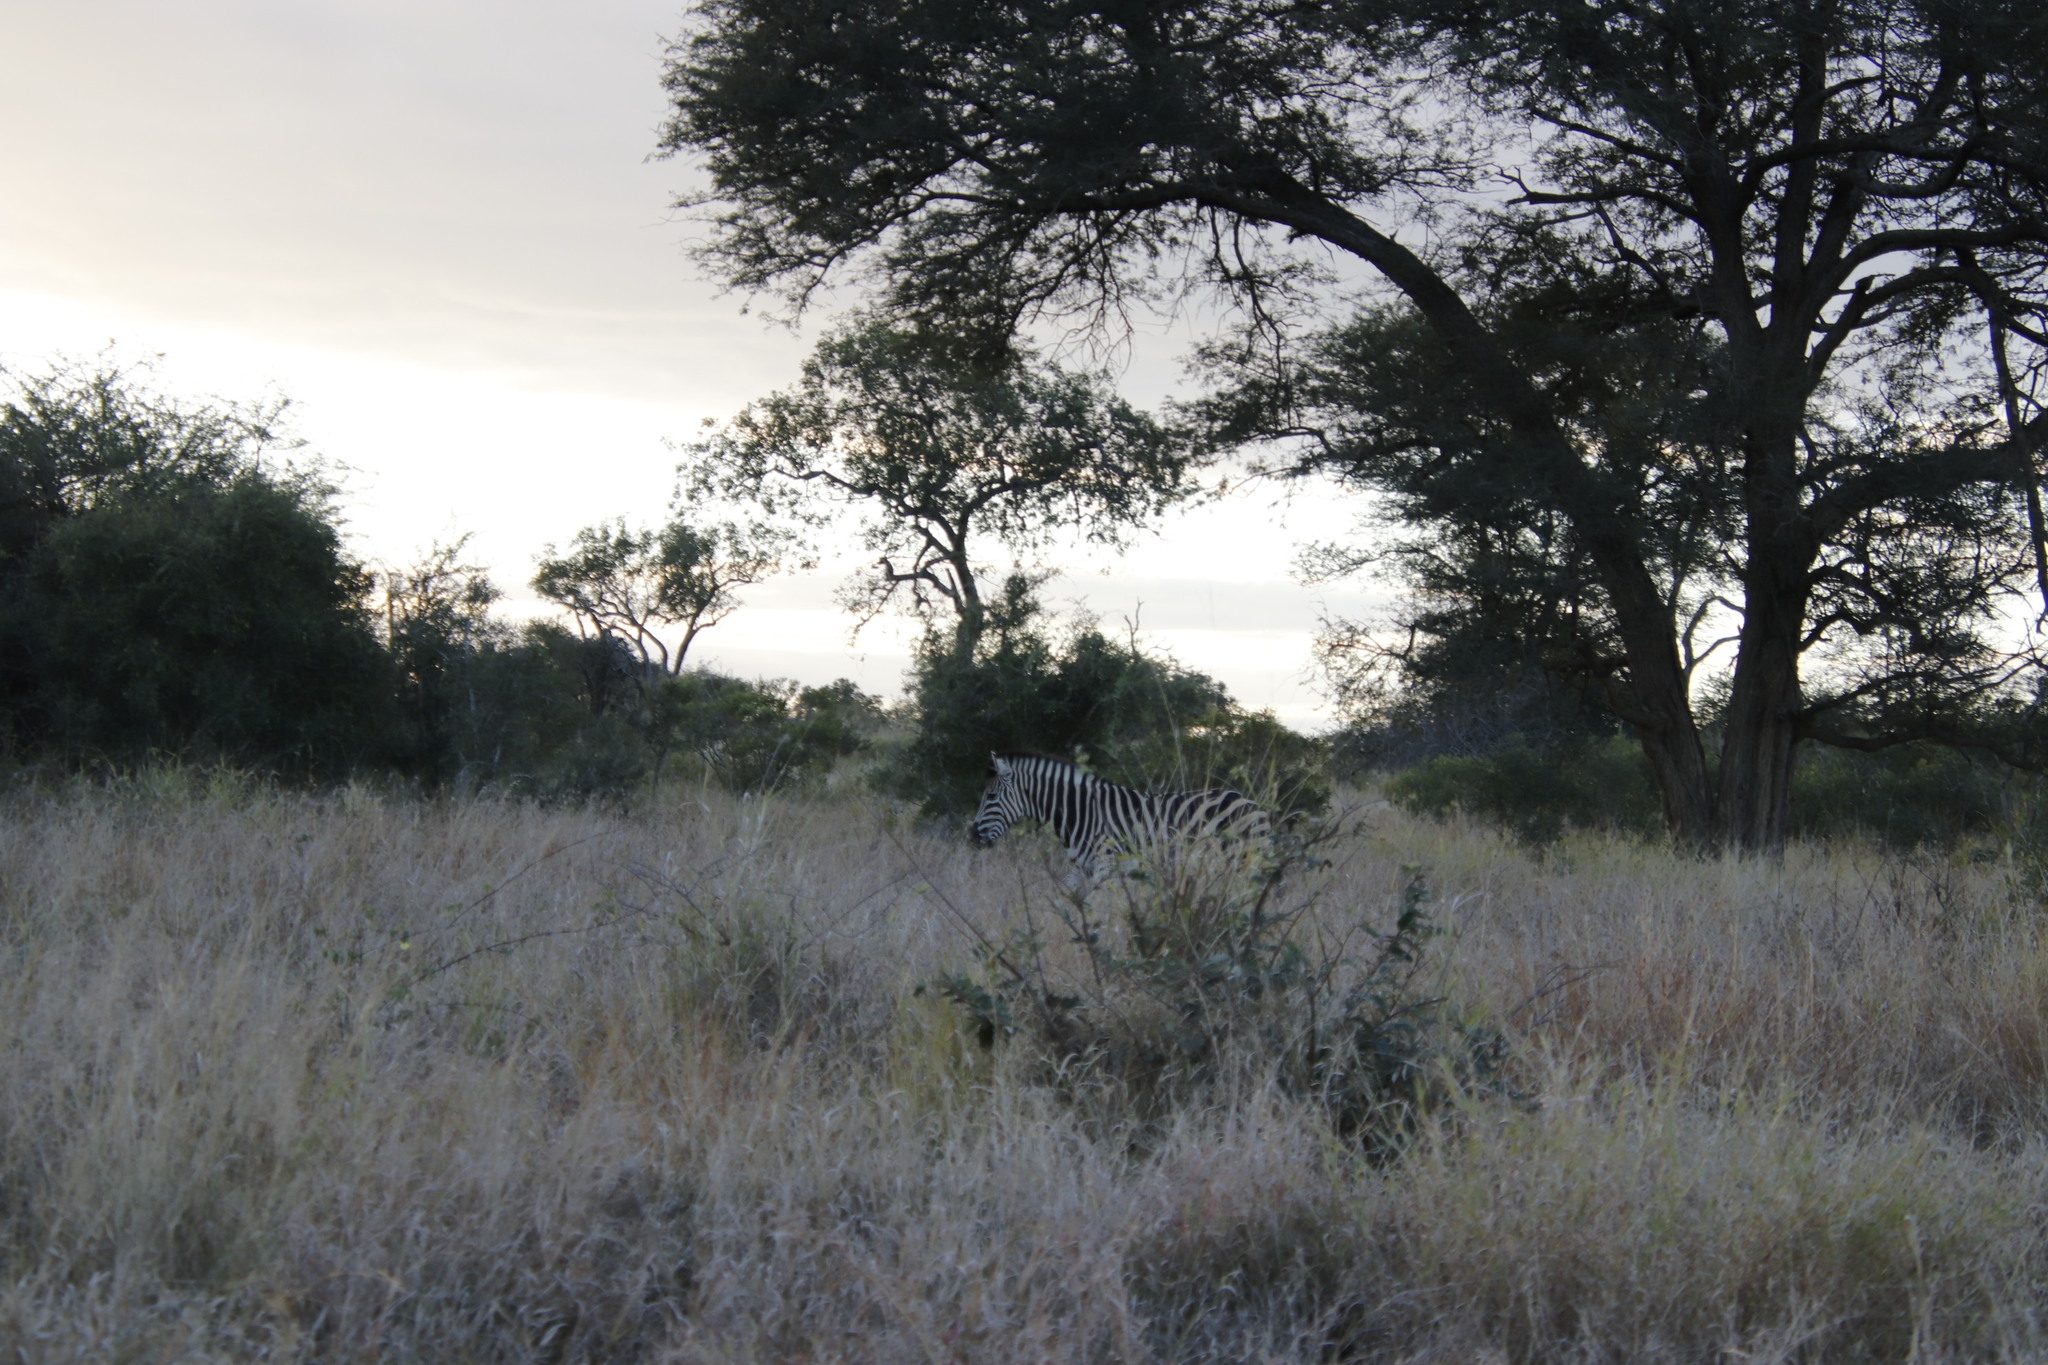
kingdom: Animalia
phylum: Chordata
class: Mammalia
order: Perissodactyla
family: Equidae
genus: Equus
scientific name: Equus quagga
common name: Plains zebra
